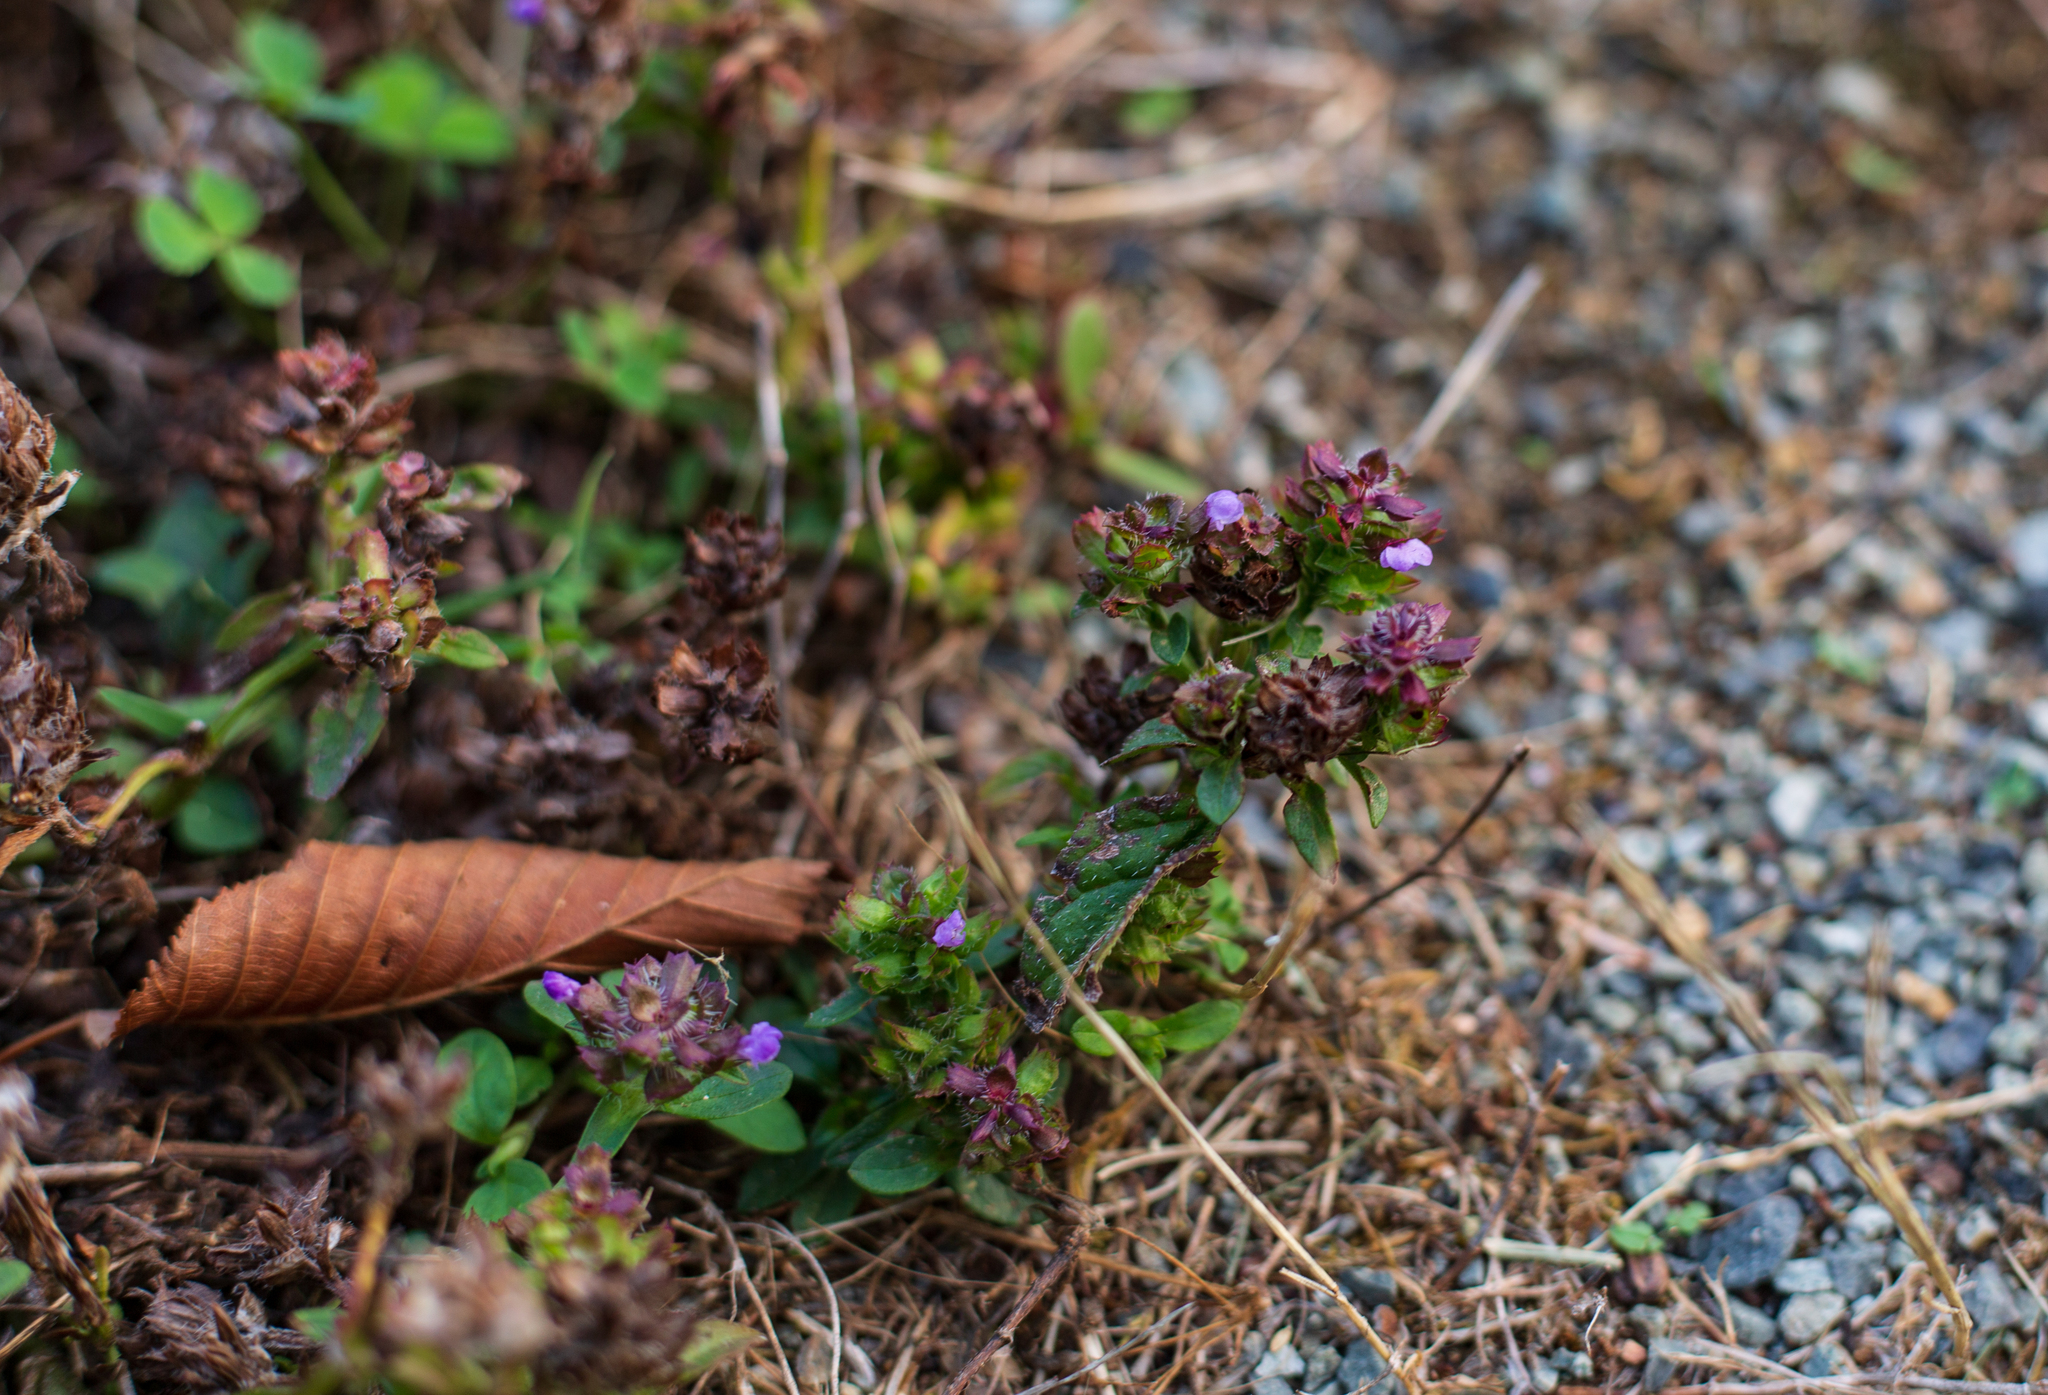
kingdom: Plantae
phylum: Tracheophyta
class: Magnoliopsida
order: Lamiales
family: Lamiaceae
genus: Prunella
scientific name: Prunella vulgaris
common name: Heal-all
